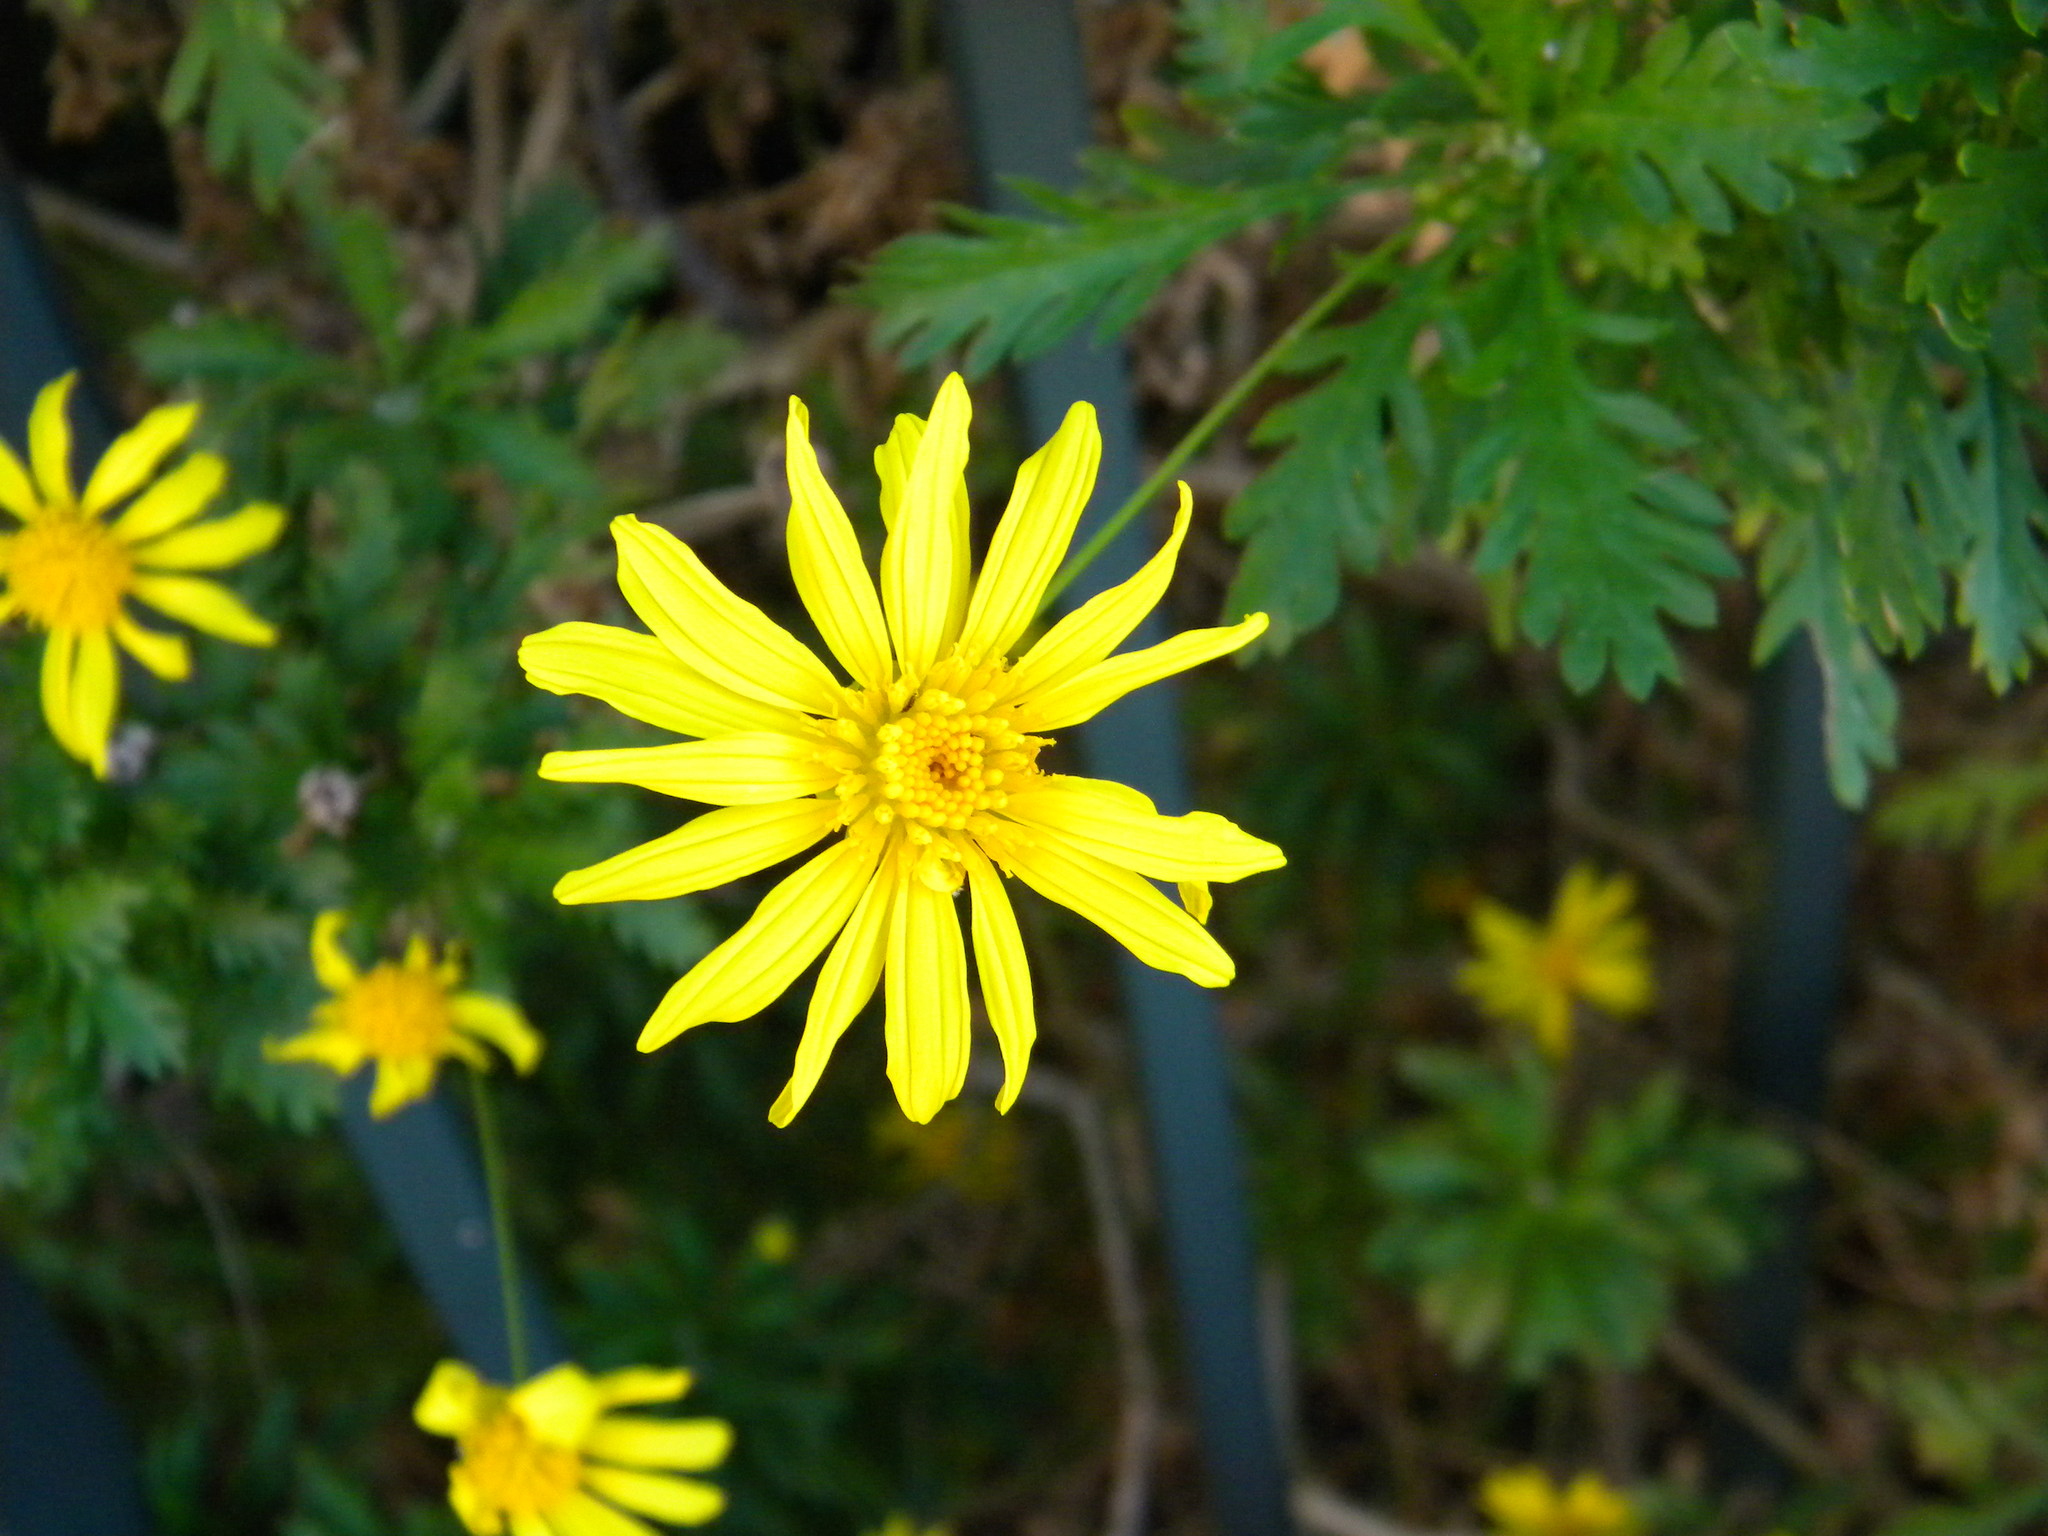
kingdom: Plantae
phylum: Tracheophyta
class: Magnoliopsida
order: Asterales
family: Asteraceae
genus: Euryops
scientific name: Euryops chrysanthemoides
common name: Bull's eye
